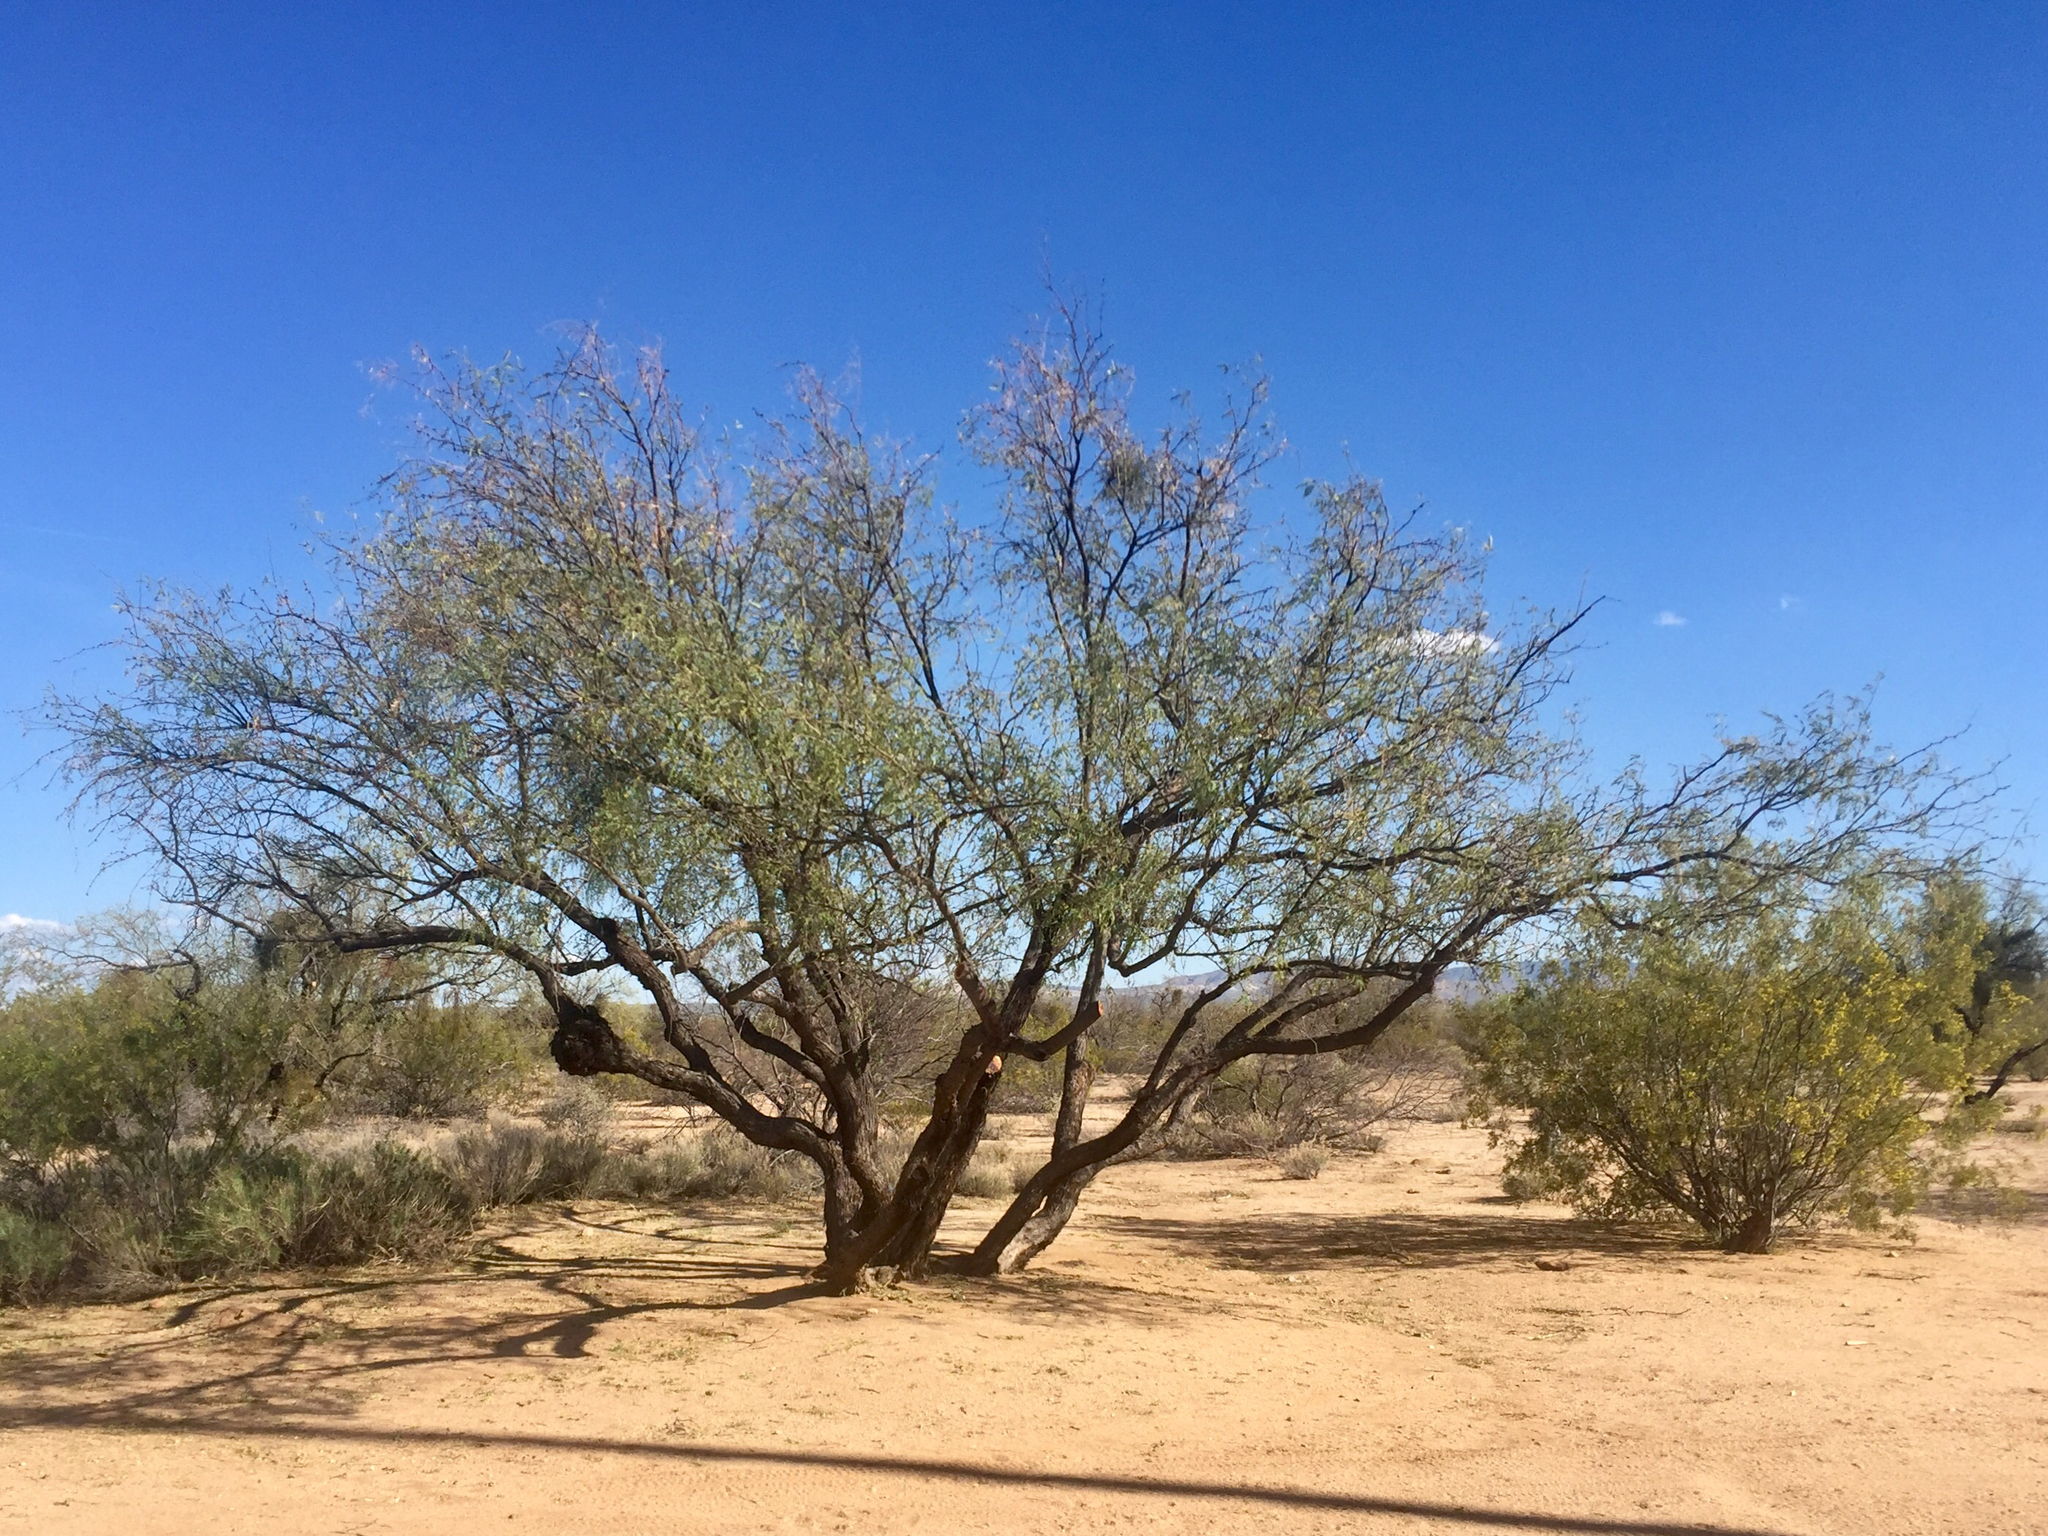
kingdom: Plantae
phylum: Tracheophyta
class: Magnoliopsida
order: Fabales
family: Fabaceae
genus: Prosopis
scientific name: Prosopis glandulosa
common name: Honey mesquite
